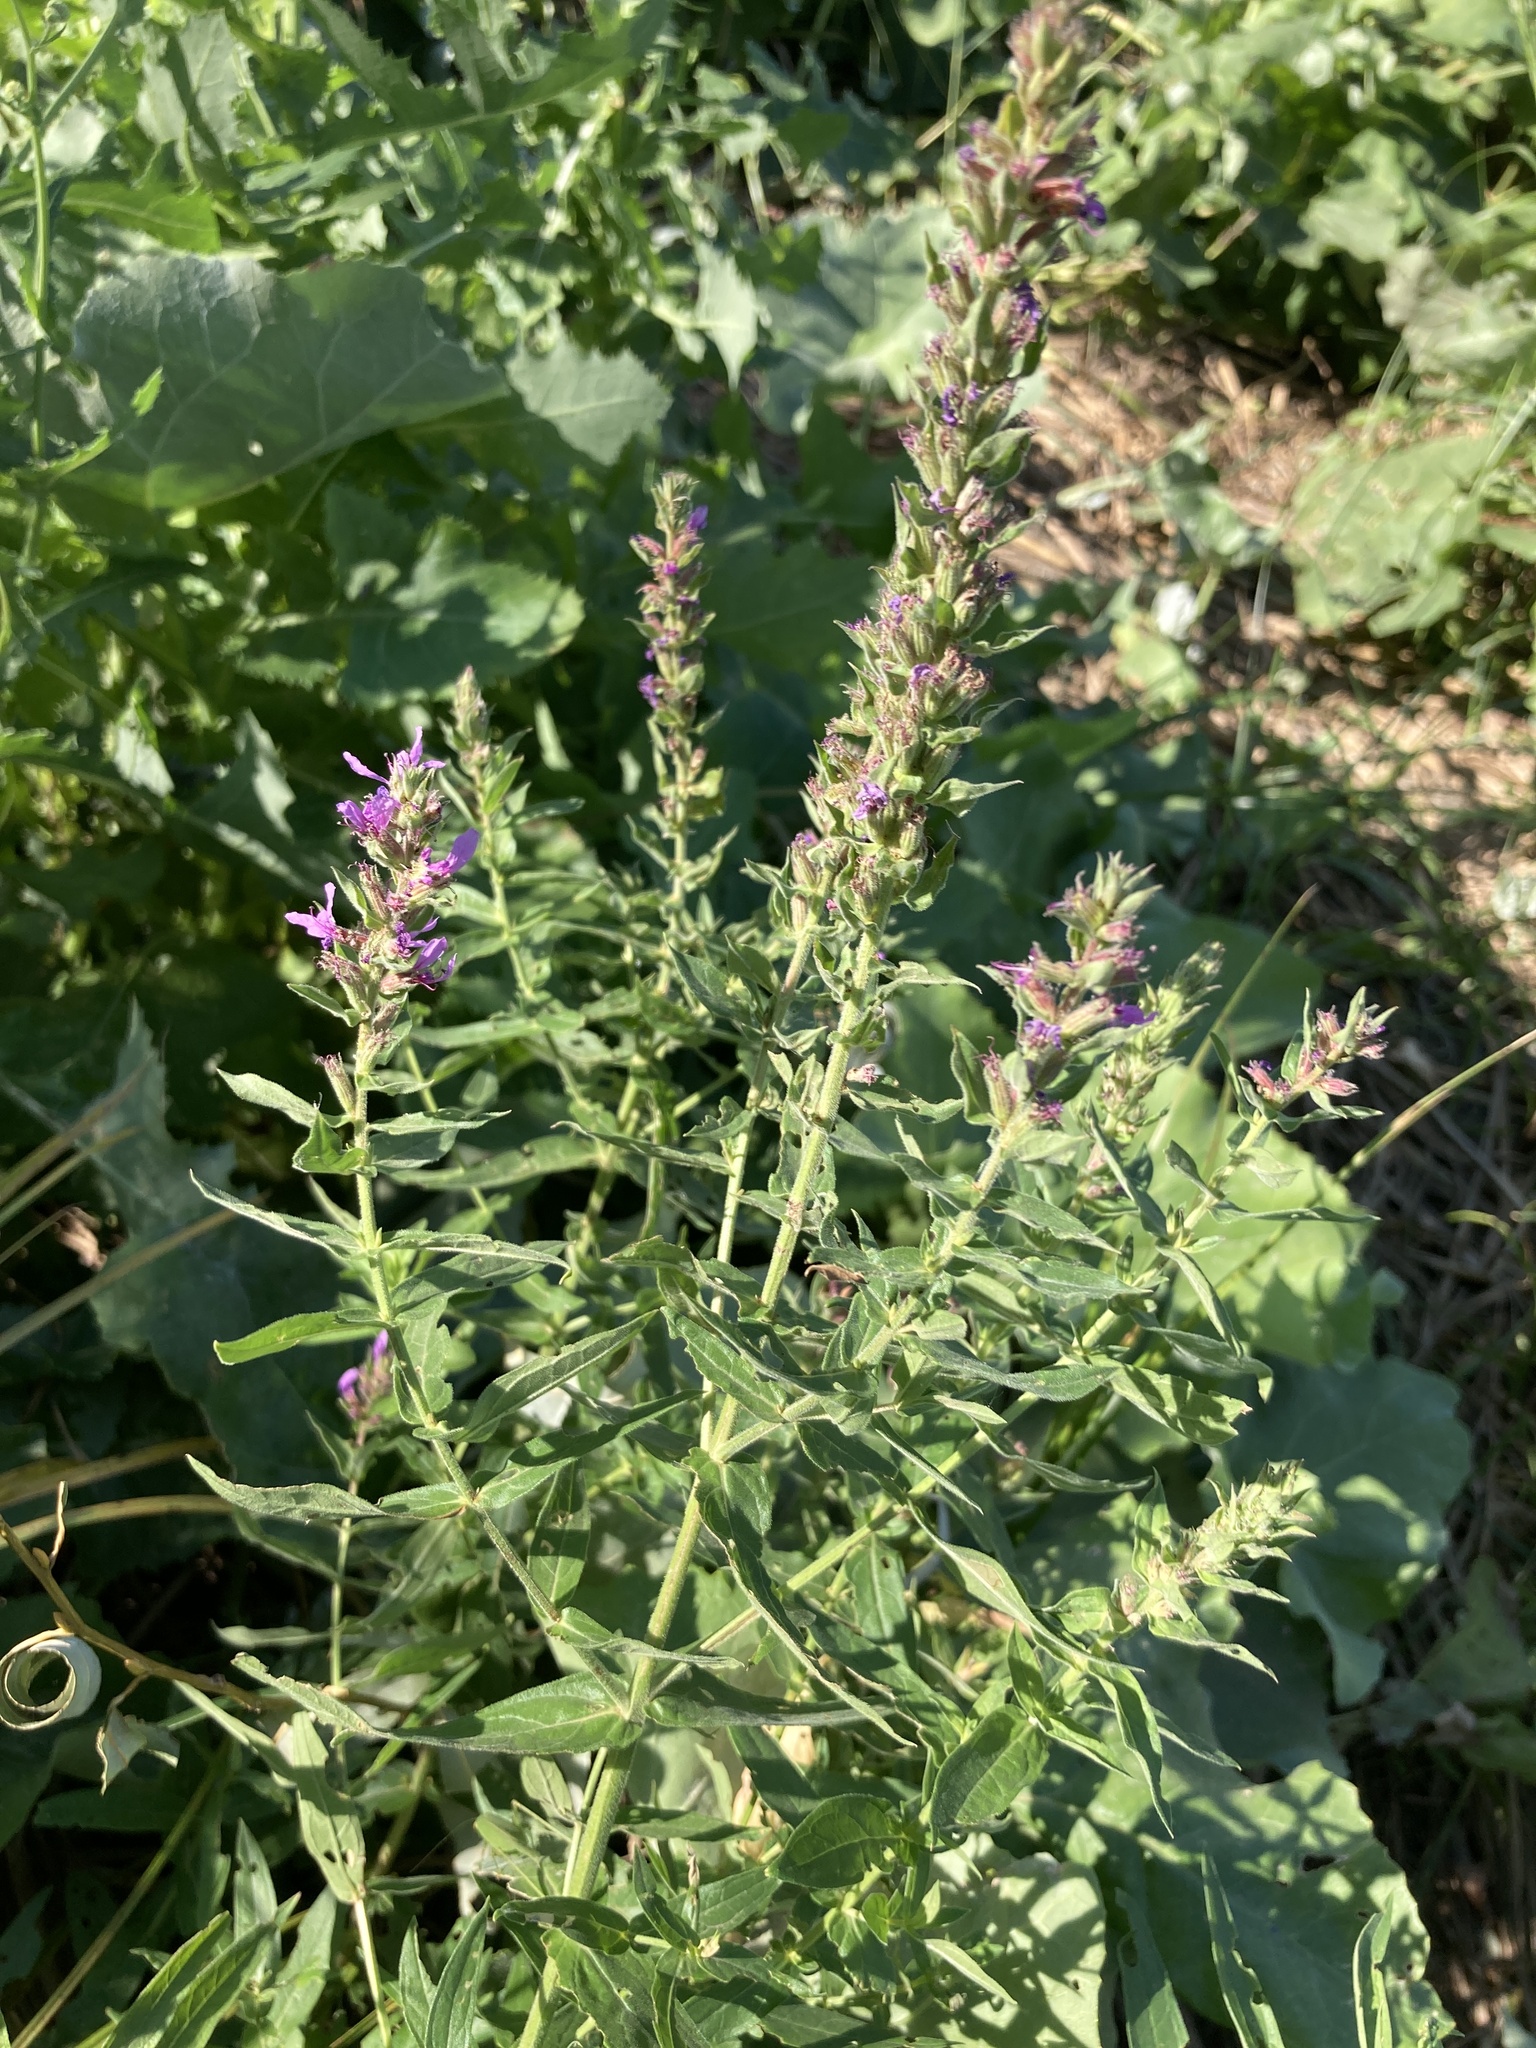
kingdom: Plantae
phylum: Tracheophyta
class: Magnoliopsida
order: Myrtales
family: Lythraceae
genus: Lythrum
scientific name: Lythrum salicaria
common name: Purple loosestrife
